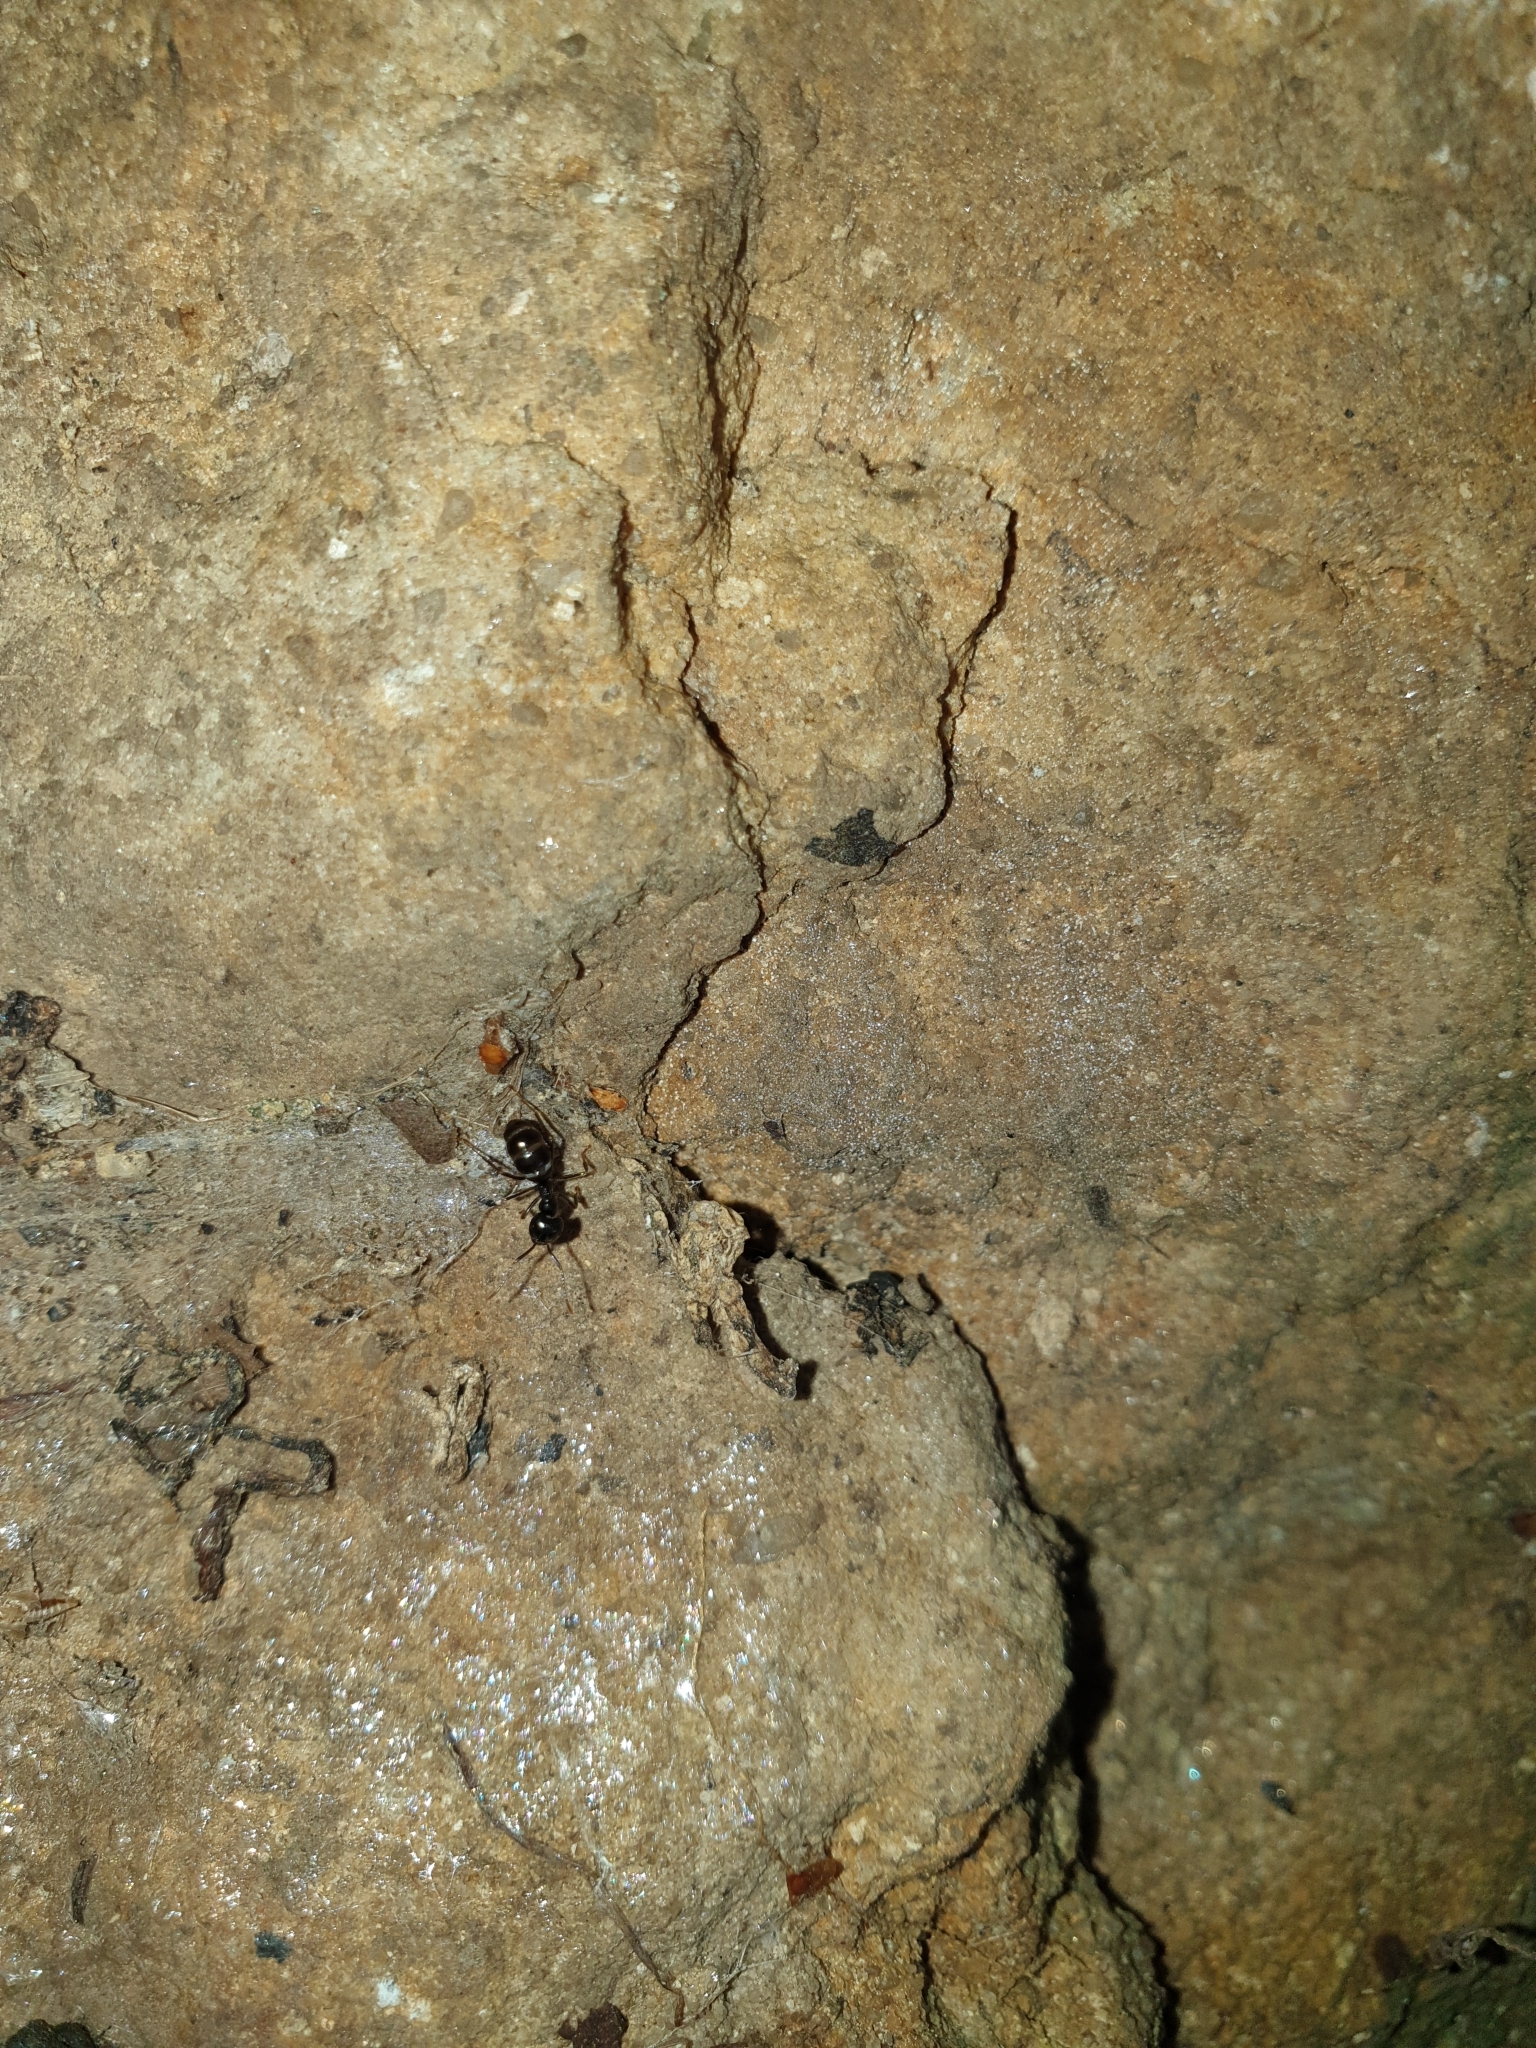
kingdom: Animalia
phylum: Arthropoda
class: Insecta
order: Hymenoptera
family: Formicidae
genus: Lasius
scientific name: Lasius fuliginosus
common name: Jet ant
